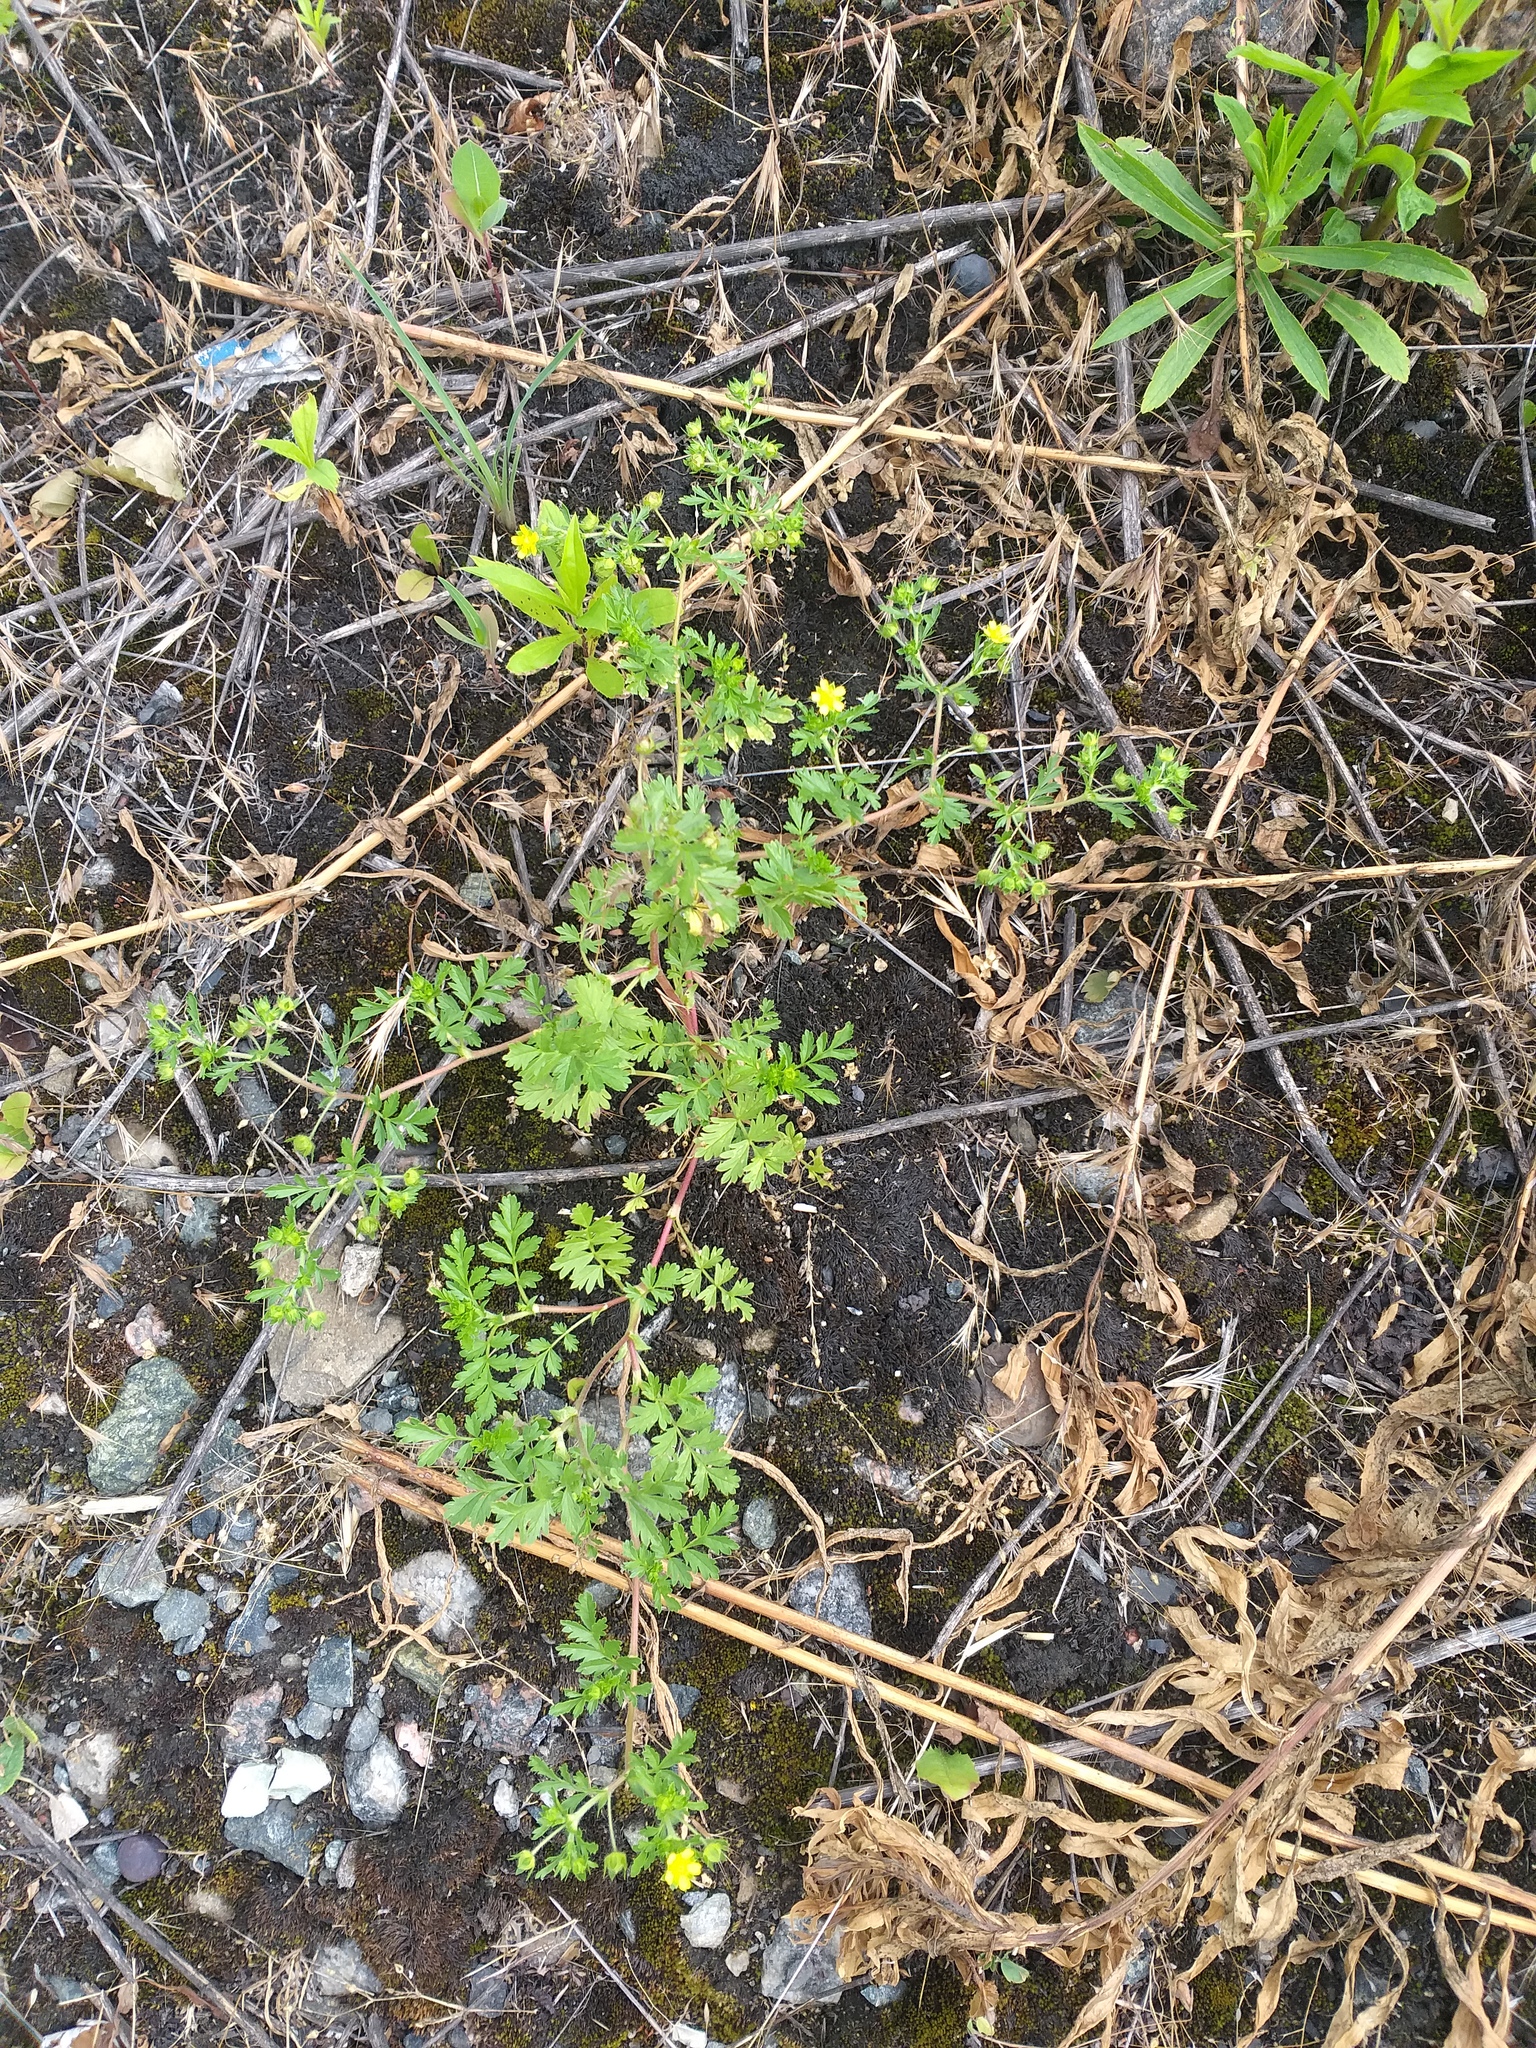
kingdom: Plantae
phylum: Tracheophyta
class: Magnoliopsida
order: Rosales
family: Rosaceae
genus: Potentilla
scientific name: Potentilla supina
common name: Prostrate cinquefoil
